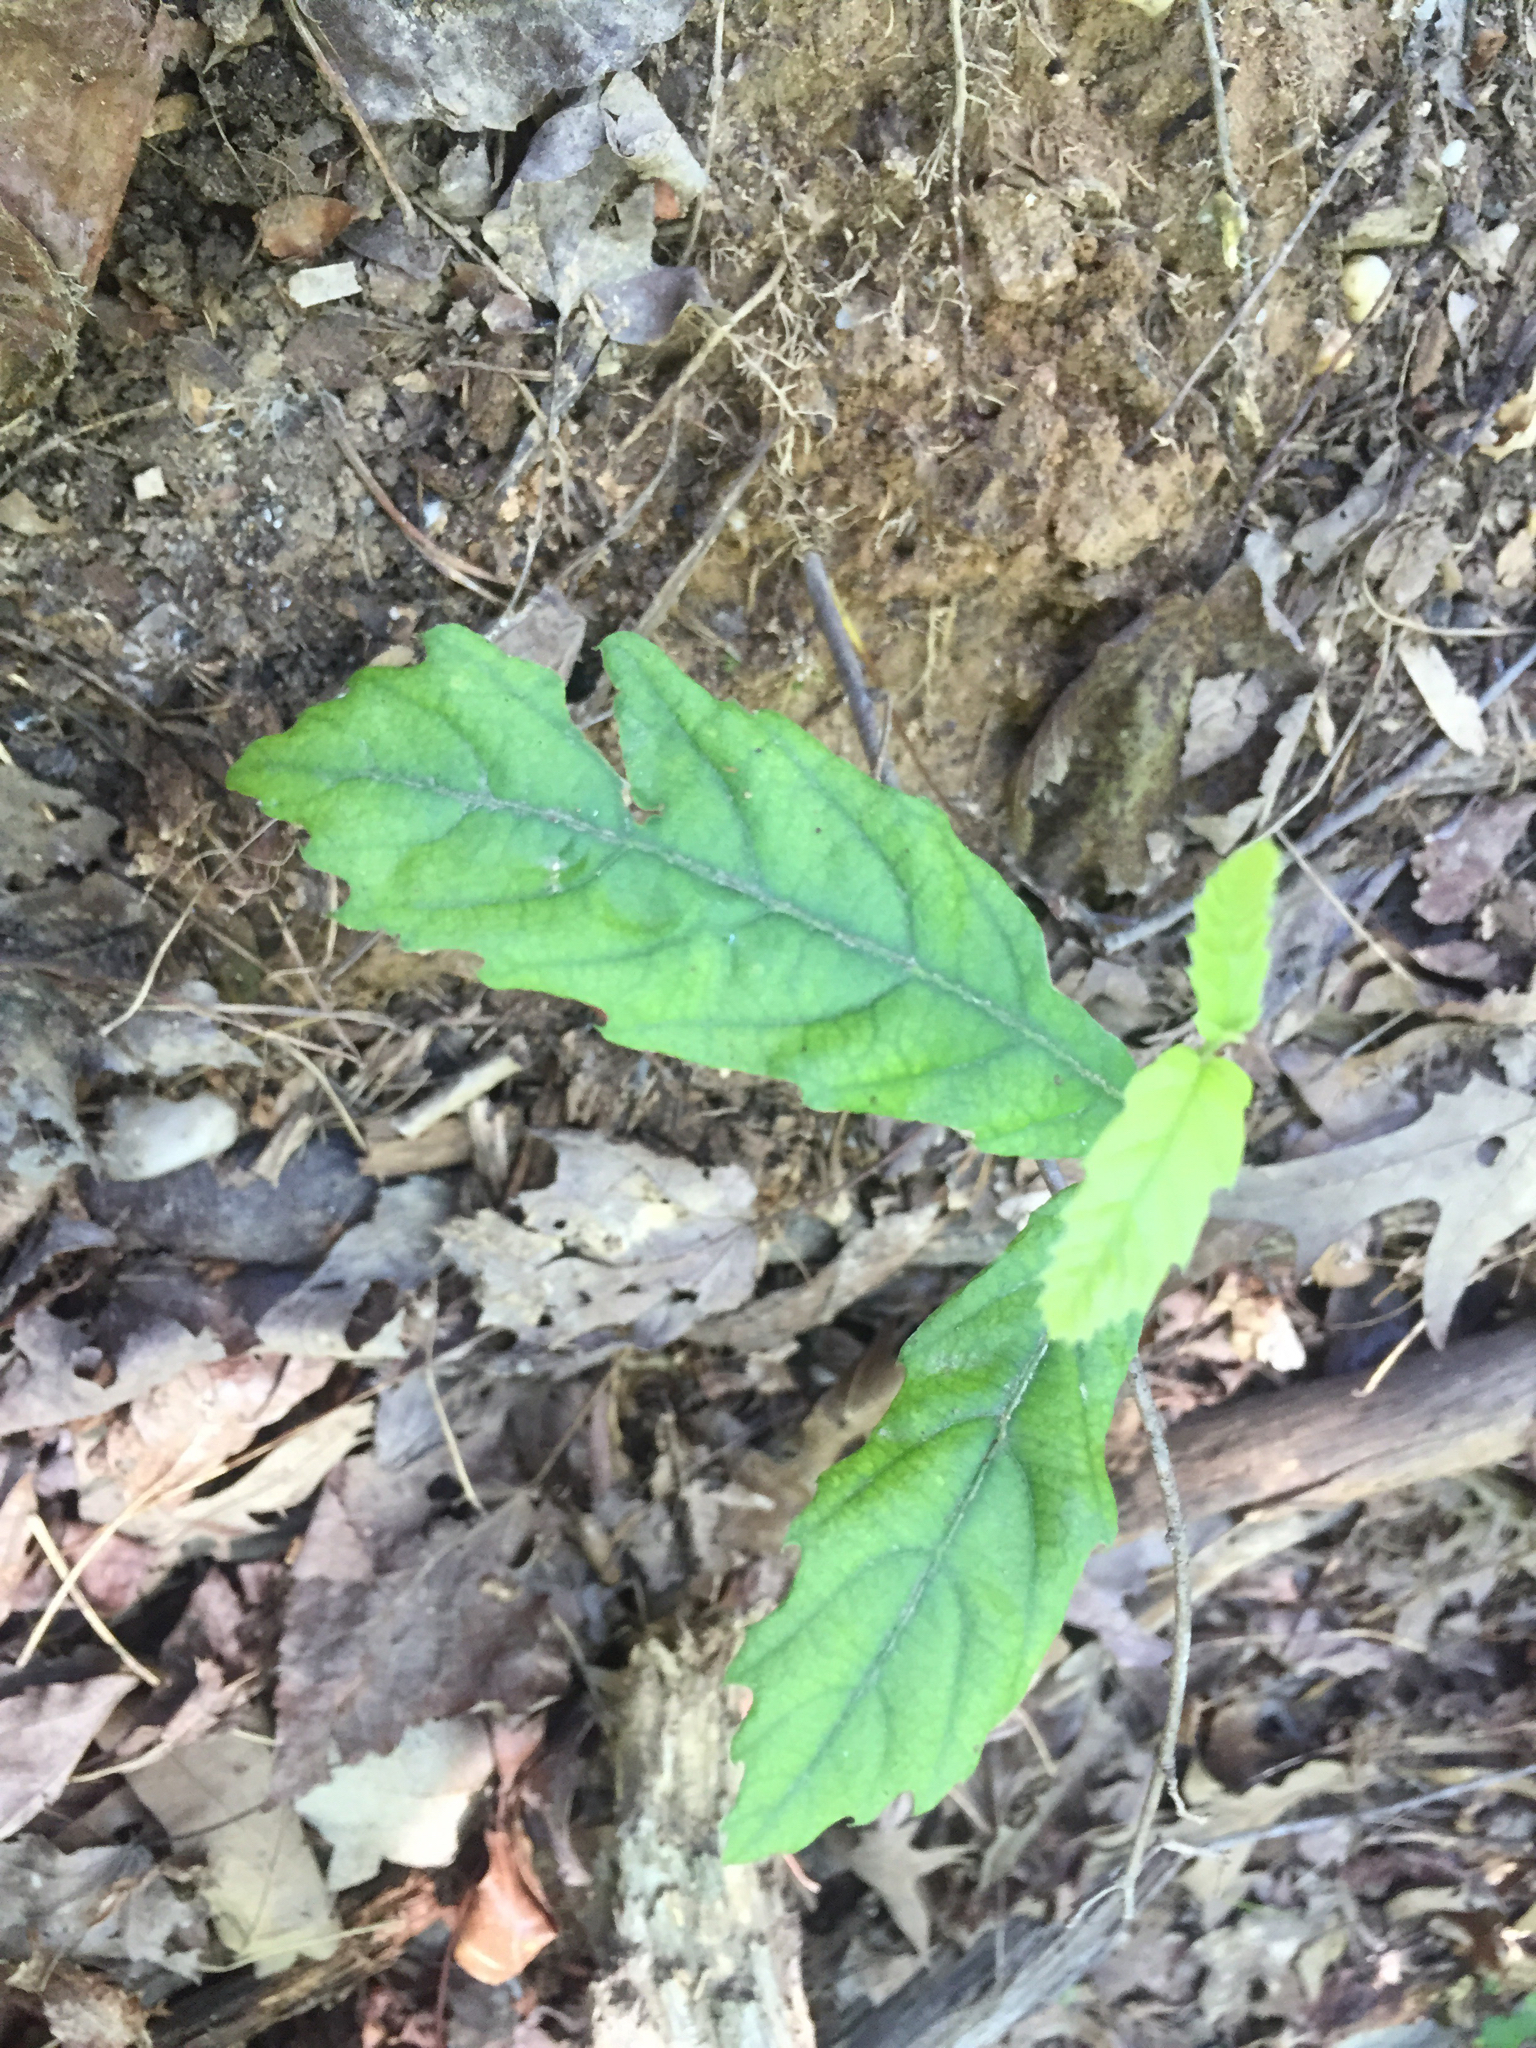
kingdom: Plantae
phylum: Tracheophyta
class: Magnoliopsida
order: Fagales
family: Fagaceae
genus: Quercus
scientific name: Quercus muehlenbergii
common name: Chinkapin oak
